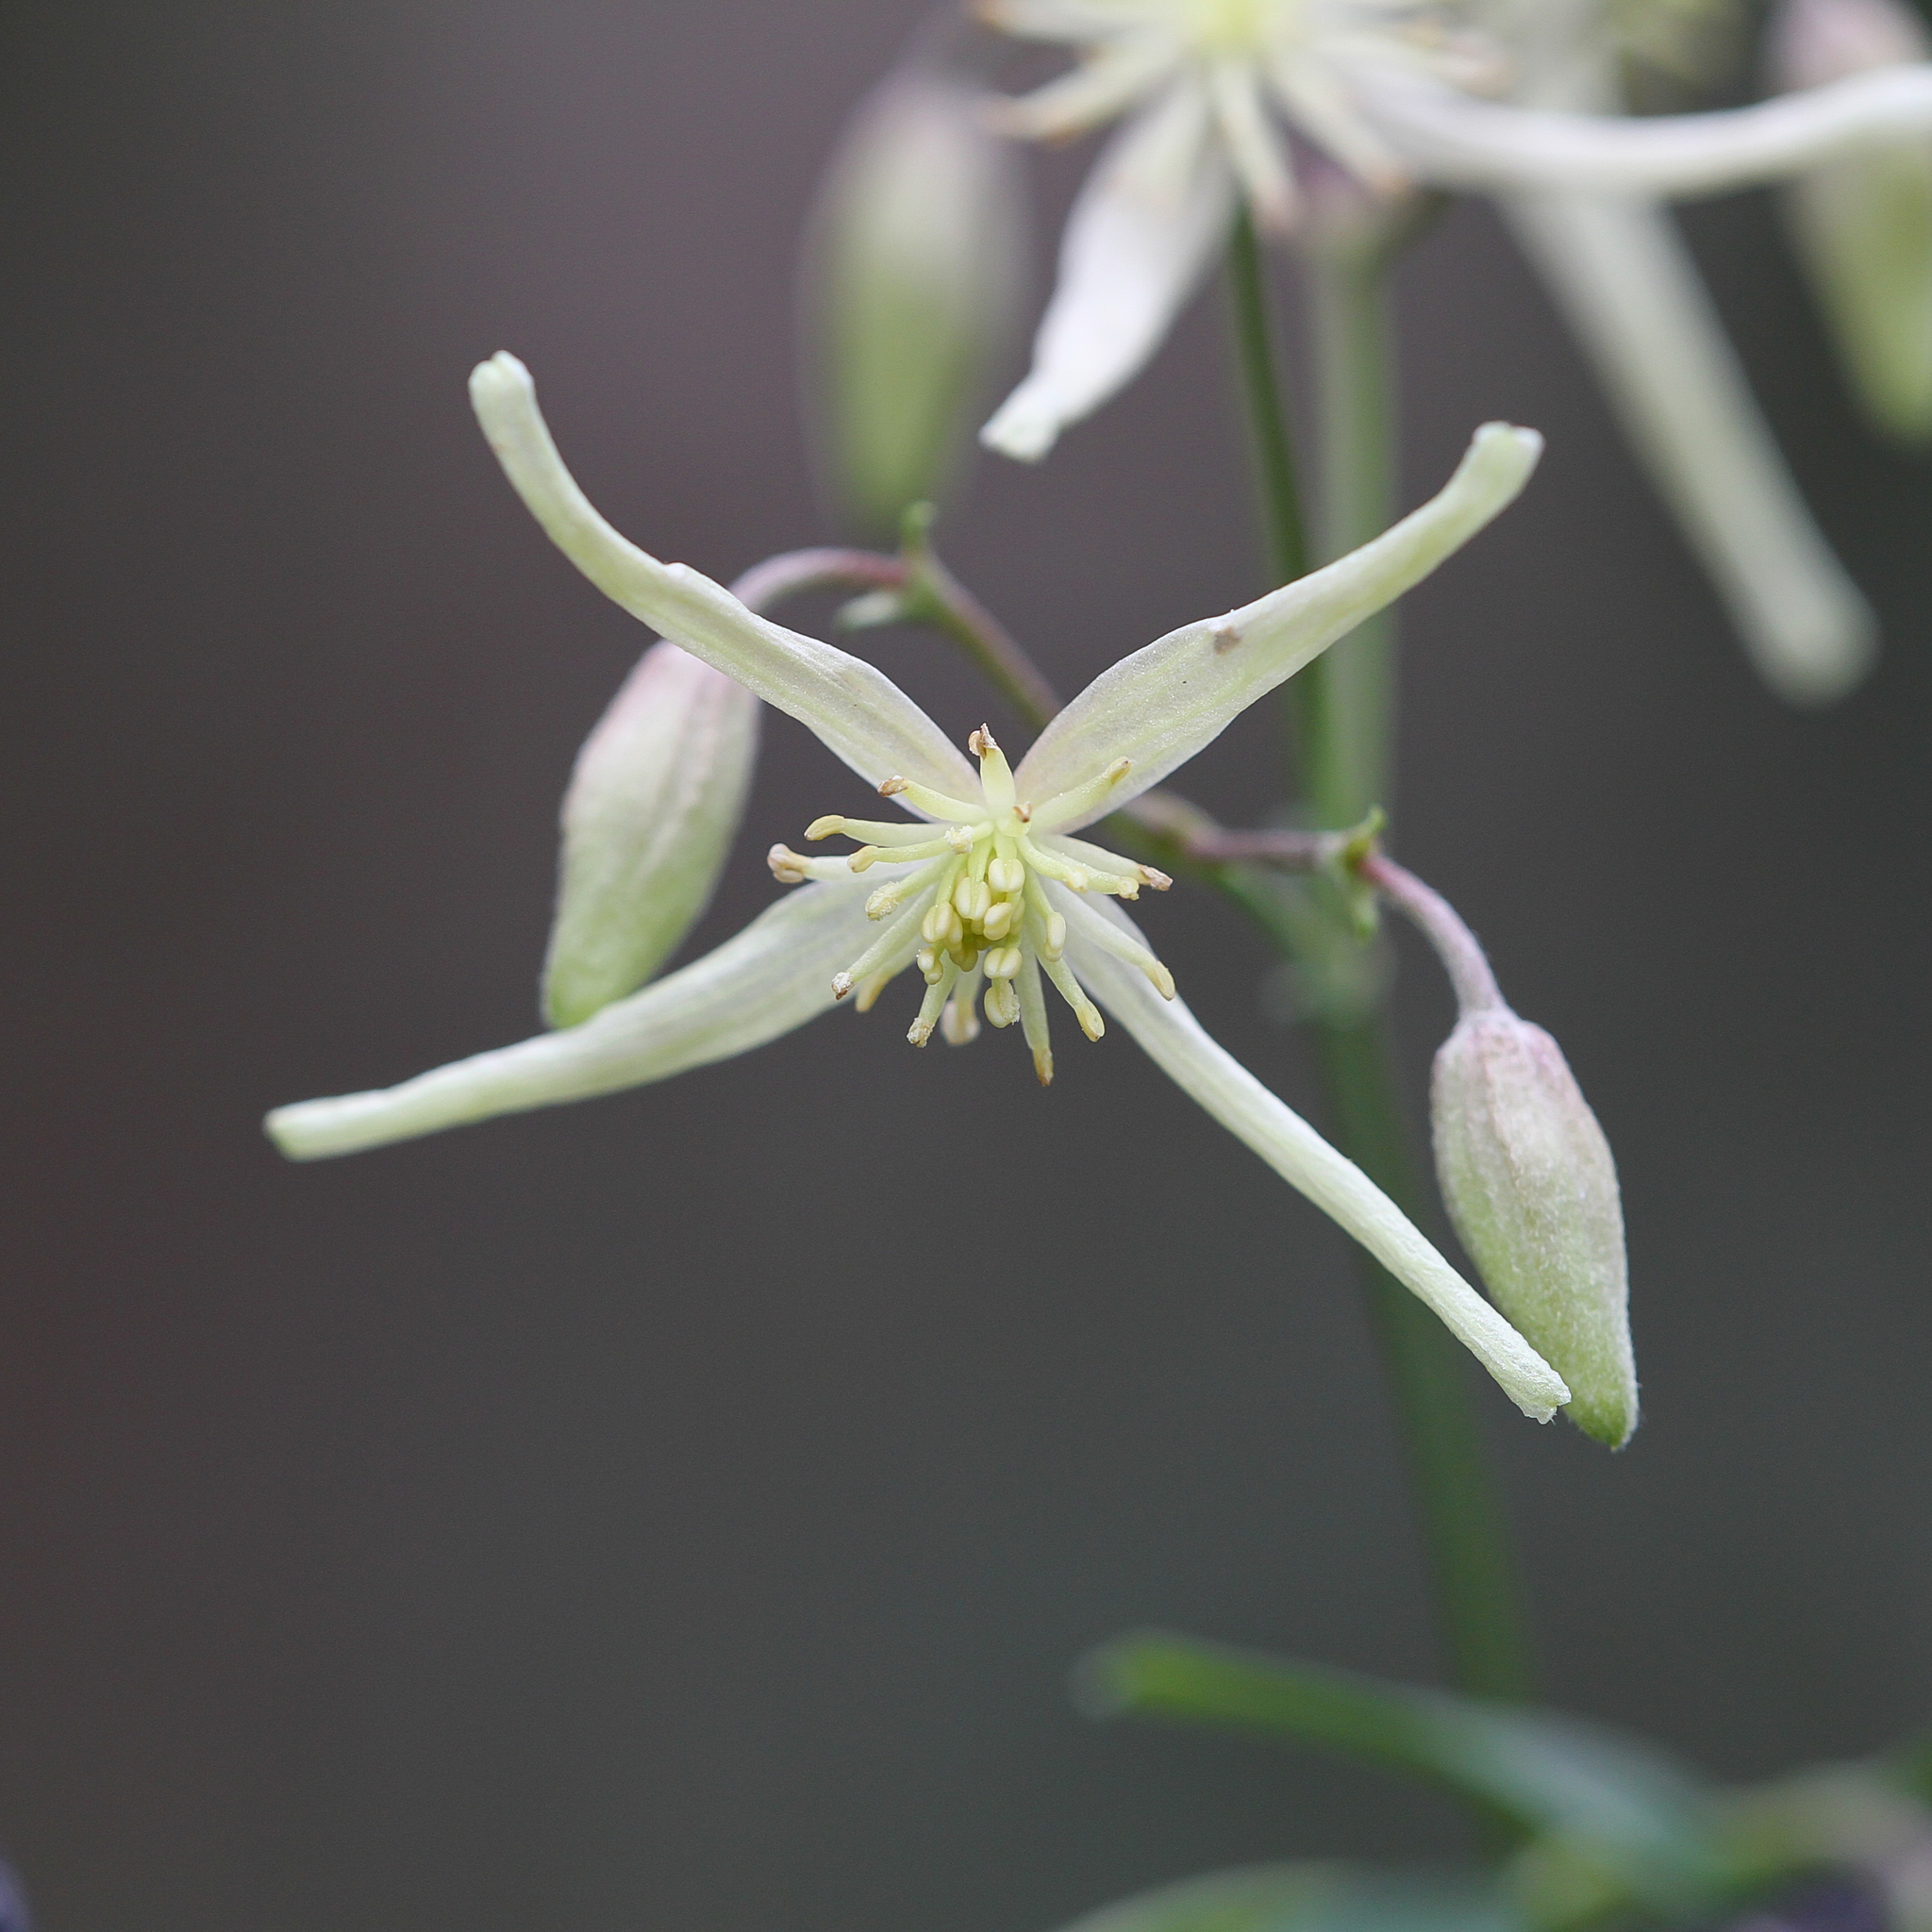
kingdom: Plantae
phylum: Tracheophyta
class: Magnoliopsida
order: Ranunculales
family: Ranunculaceae
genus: Clematis
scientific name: Clematis microphylla
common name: Headachevine
